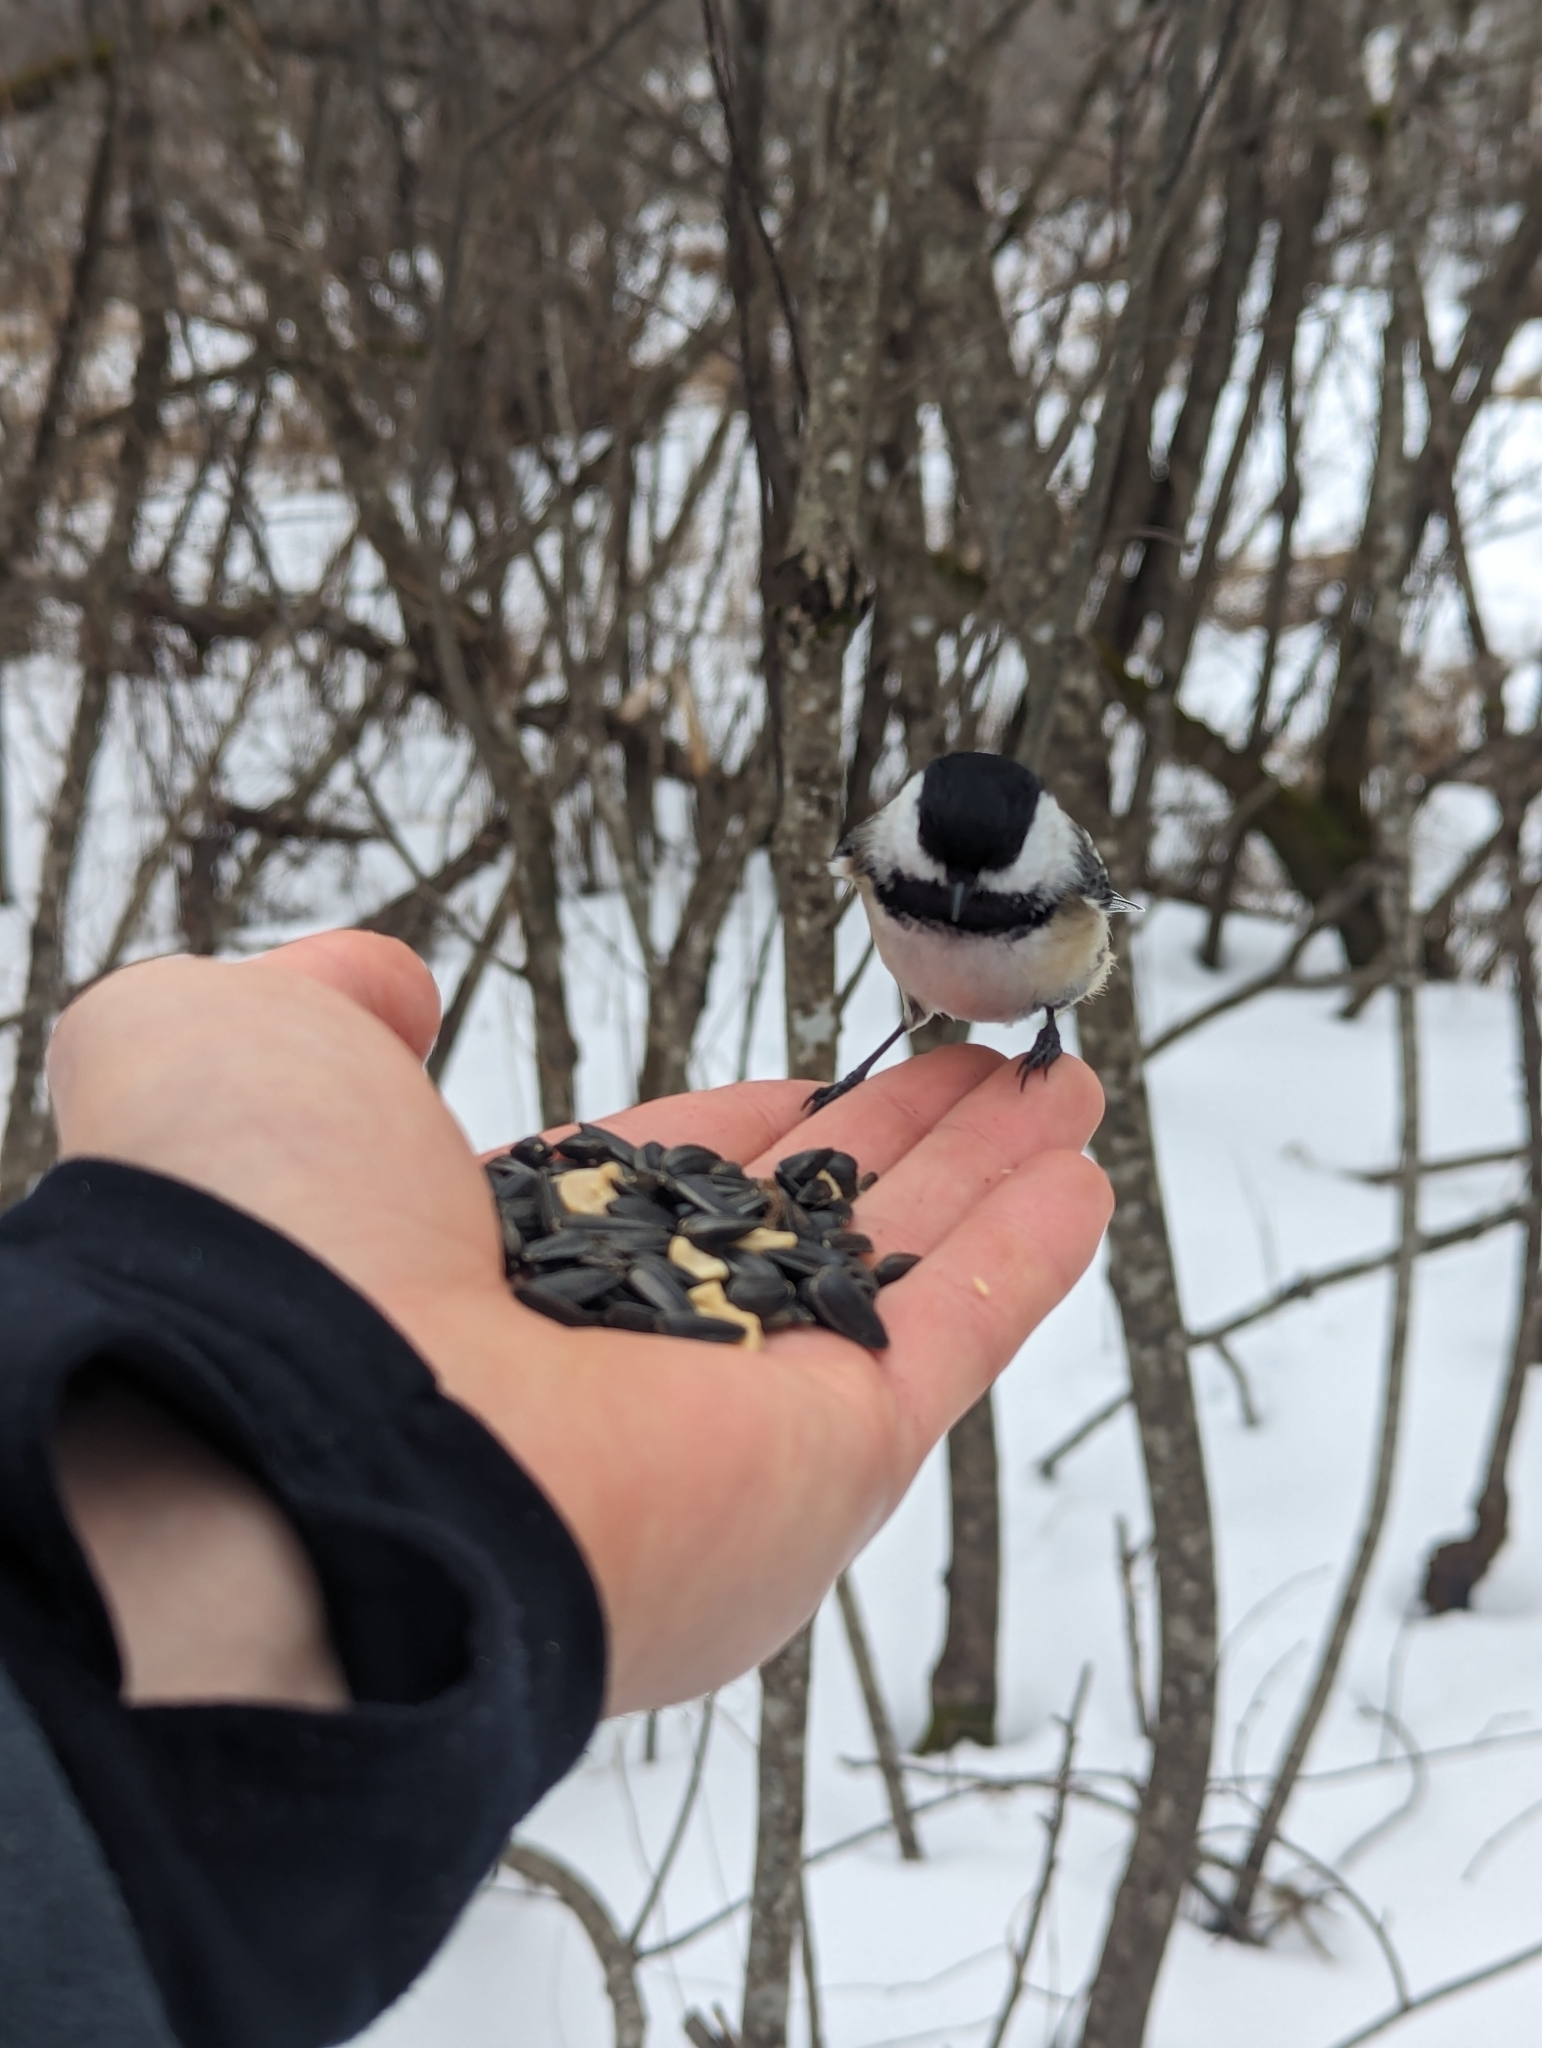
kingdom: Animalia
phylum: Chordata
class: Aves
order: Passeriformes
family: Paridae
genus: Poecile
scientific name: Poecile atricapillus
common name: Black-capped chickadee
